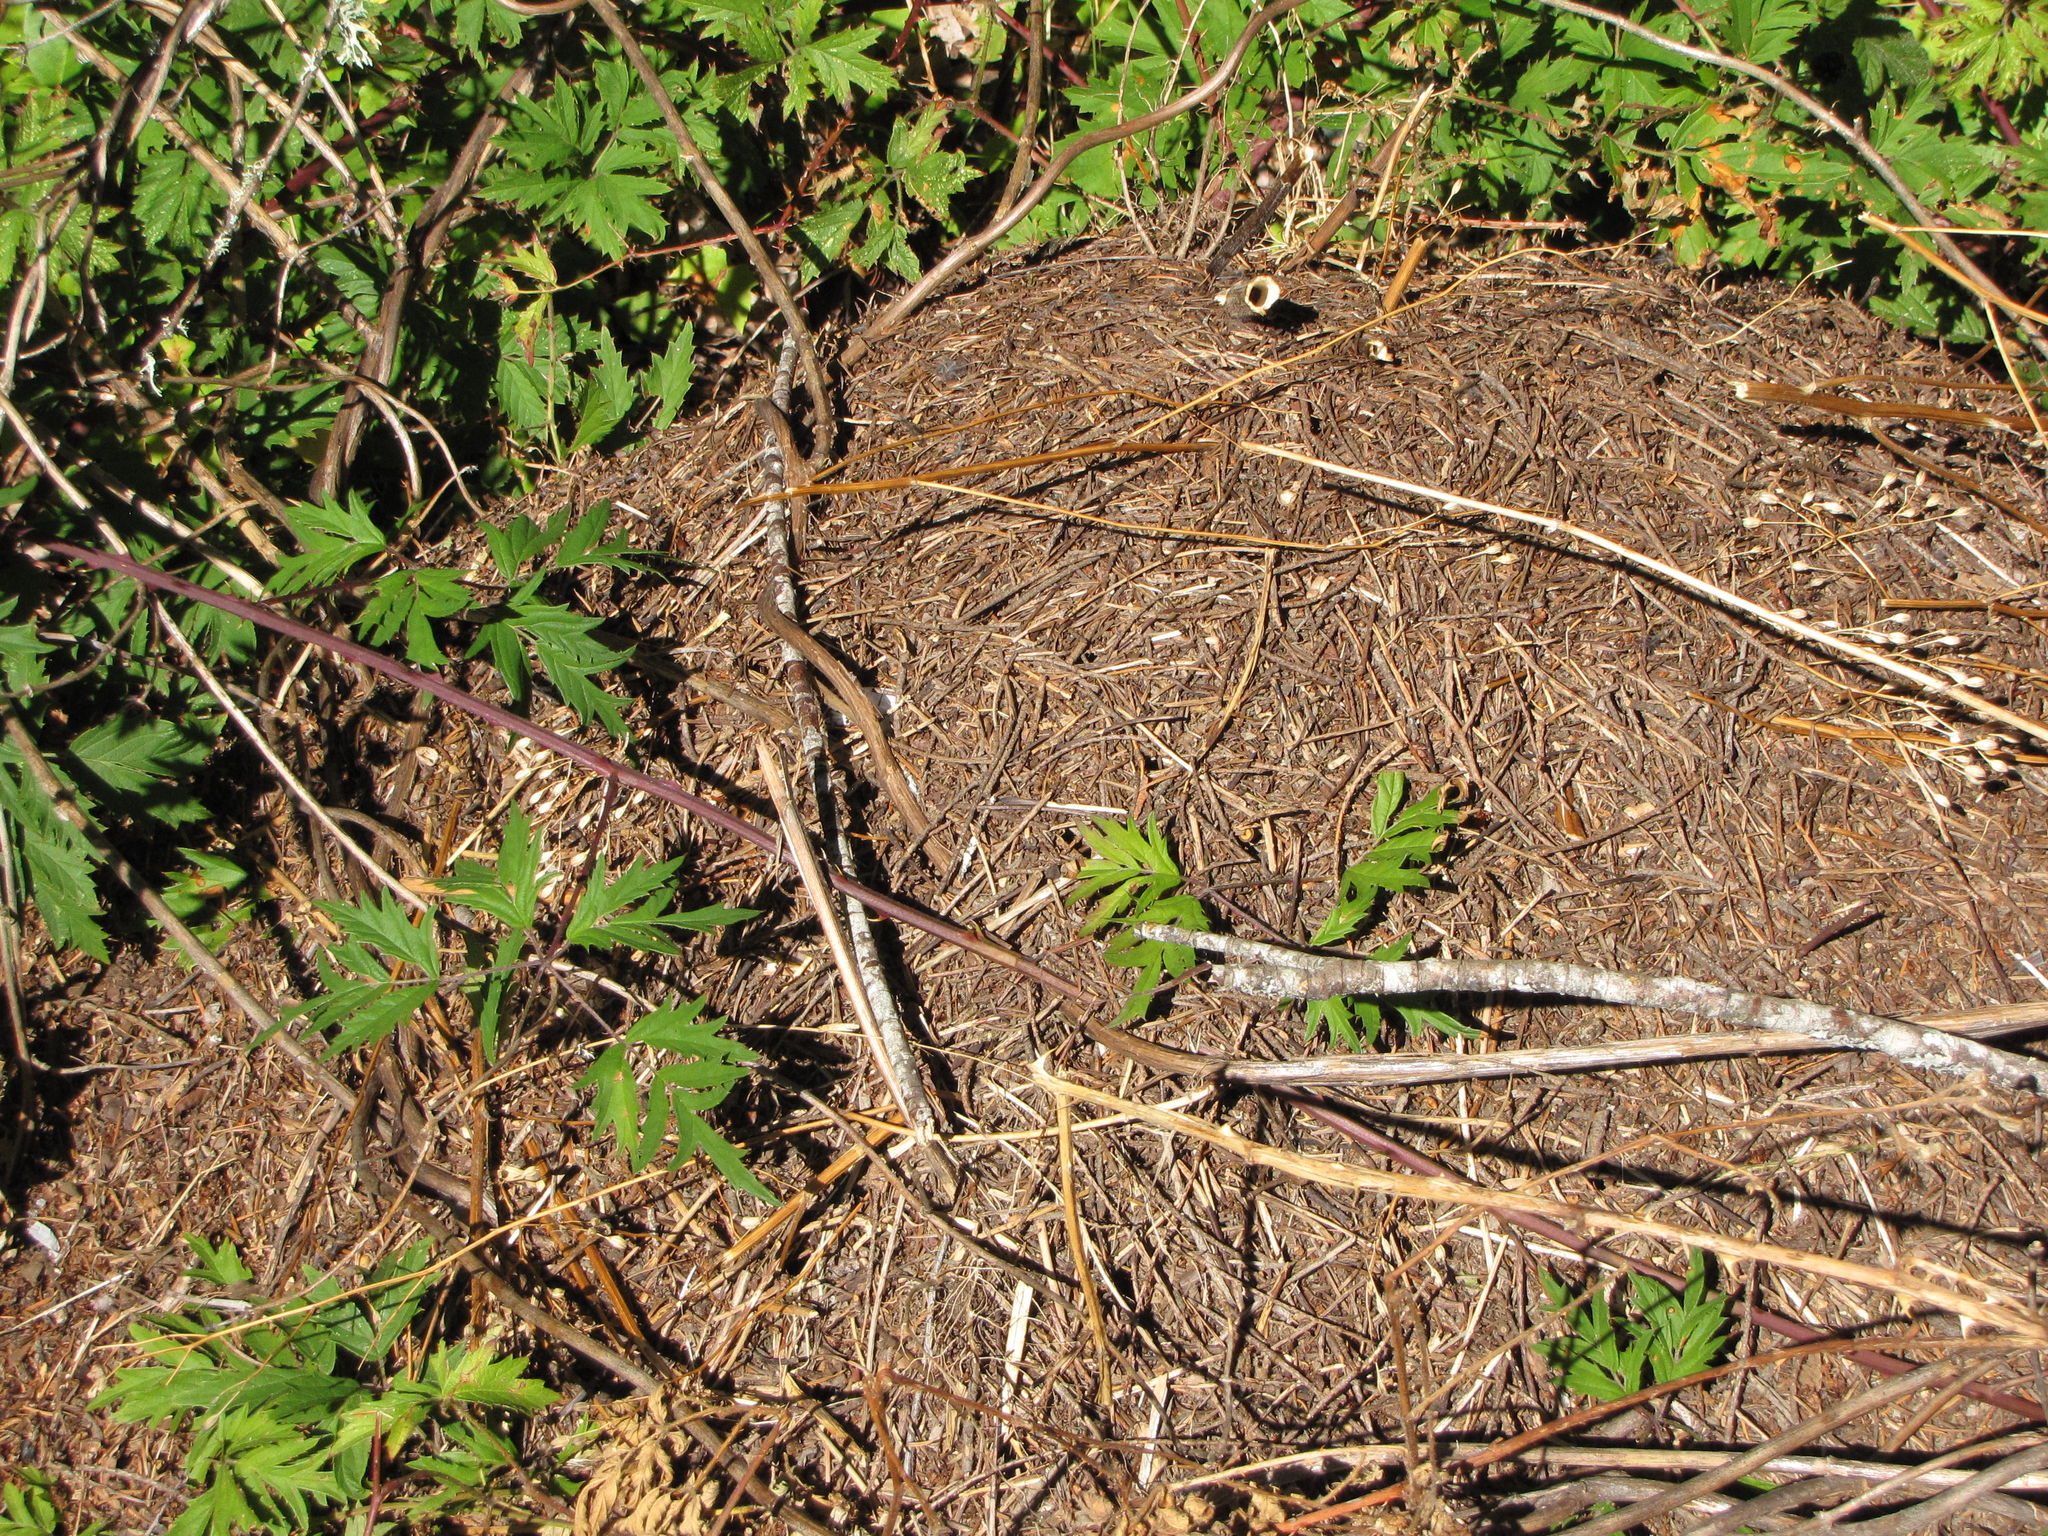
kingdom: Animalia
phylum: Arthropoda
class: Insecta
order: Hymenoptera
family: Formicidae
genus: Formica
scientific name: Formica
